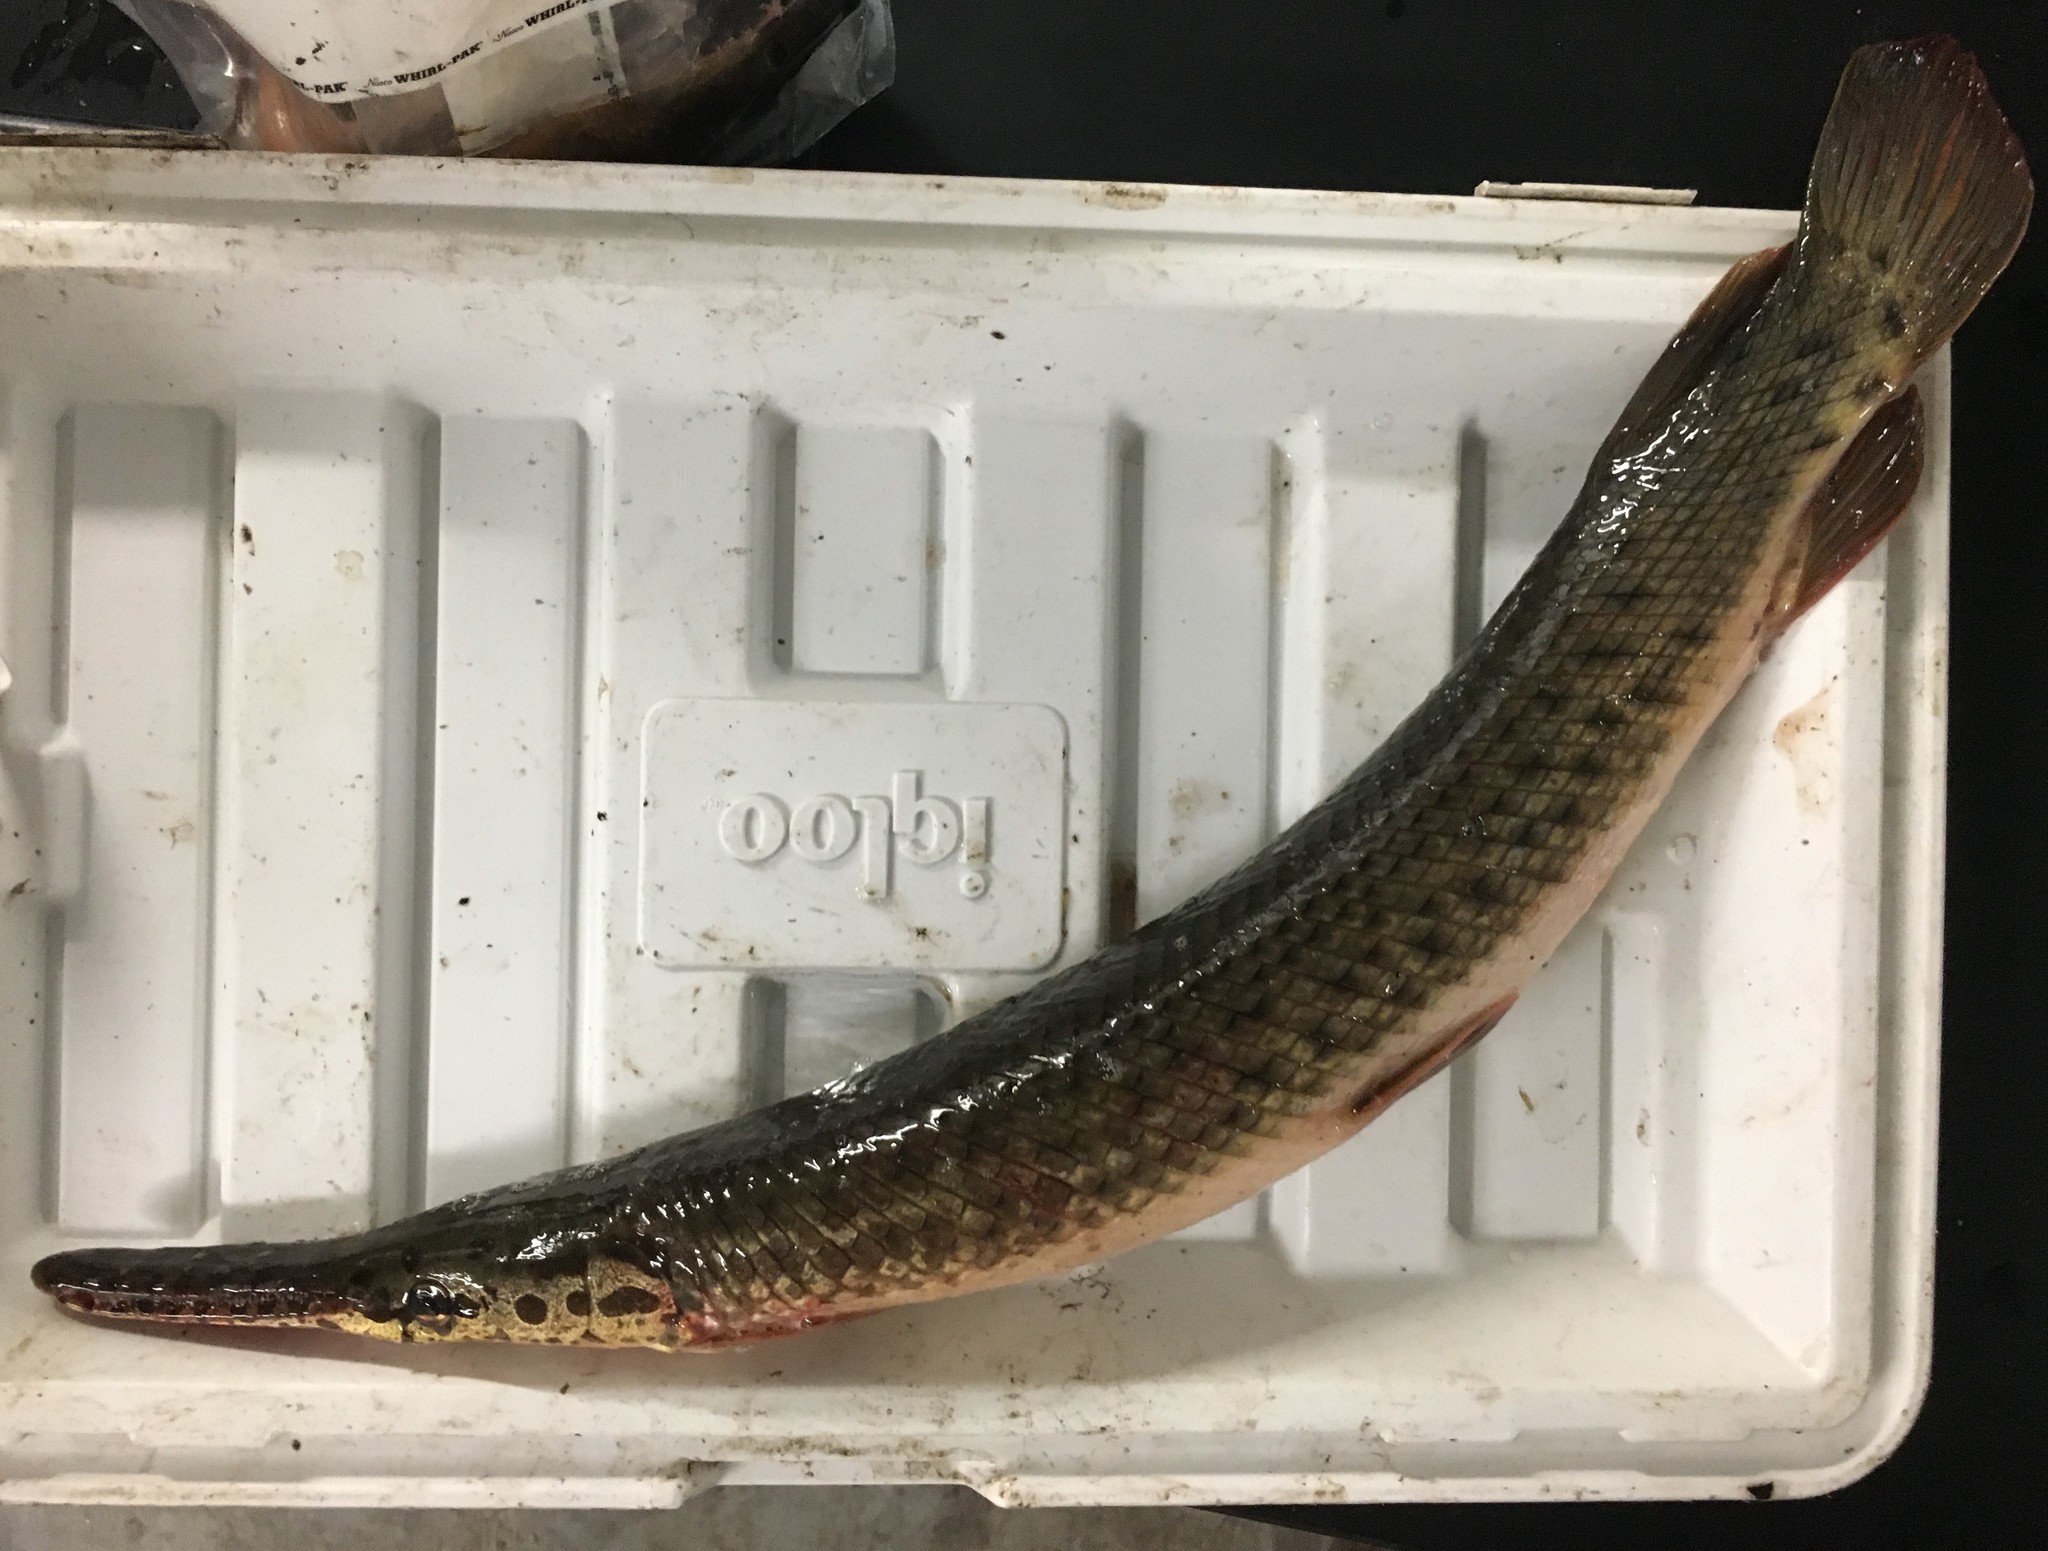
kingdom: Animalia
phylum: Chordata
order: Lepisosteiformes
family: Lepisosteidae
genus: Lepisosteus
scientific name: Lepisosteus platyrhincus
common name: Florida gar
